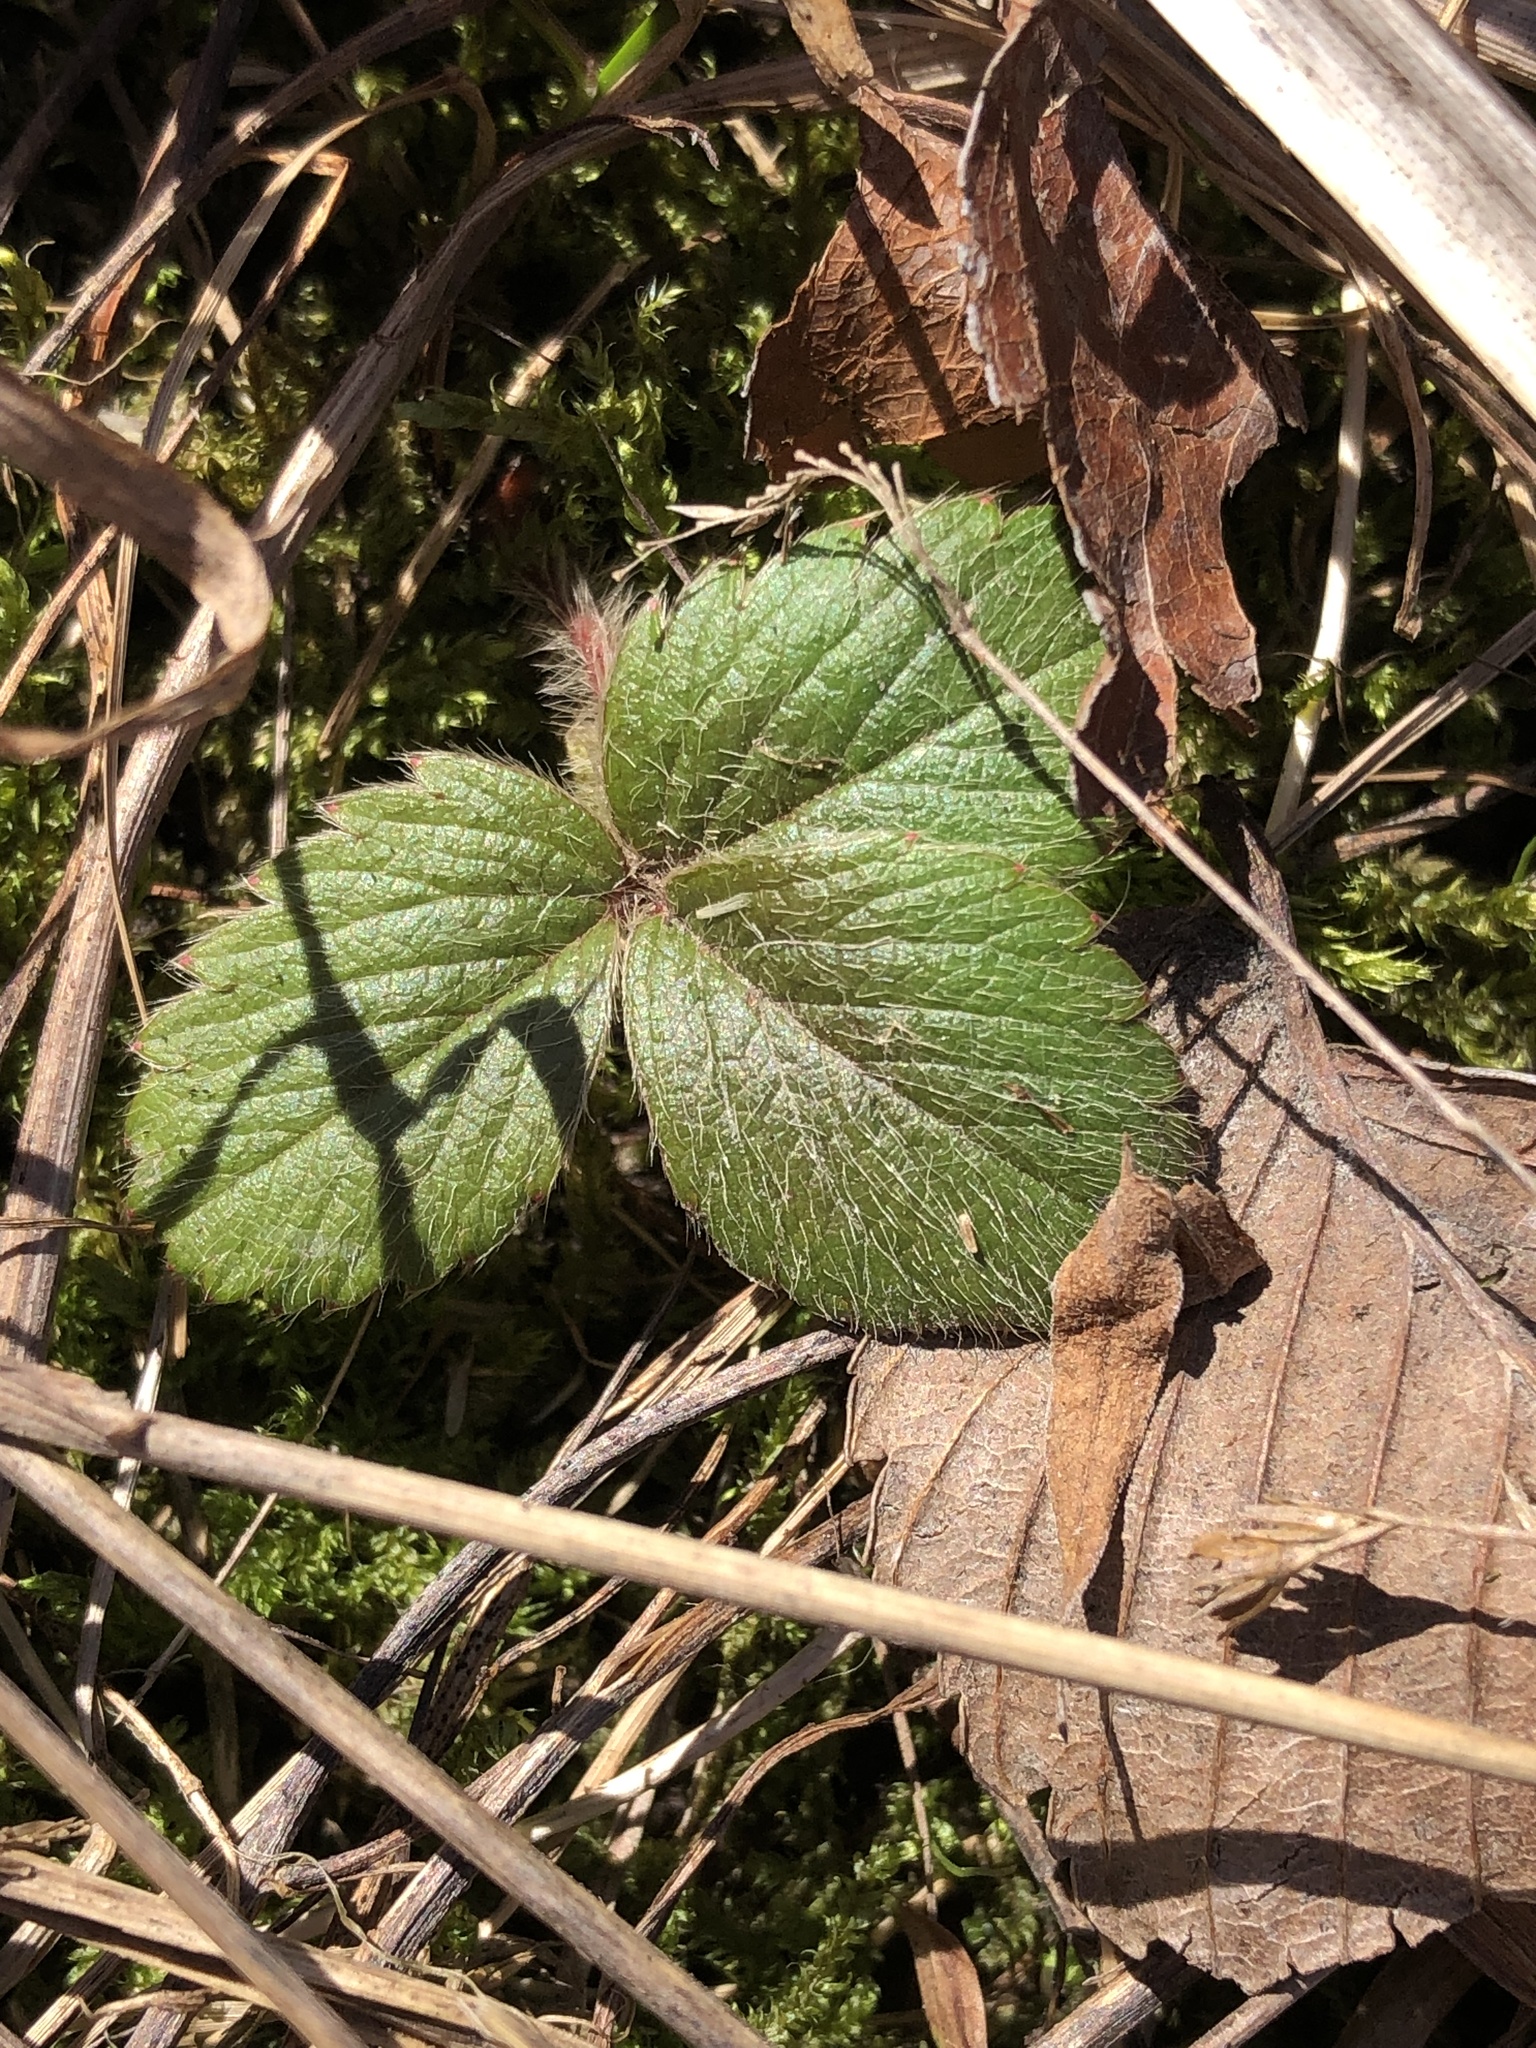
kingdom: Plantae
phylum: Tracheophyta
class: Magnoliopsida
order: Rosales
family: Rosaceae
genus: Fragaria
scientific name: Fragaria virginiana
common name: Thickleaved wild strawberry
